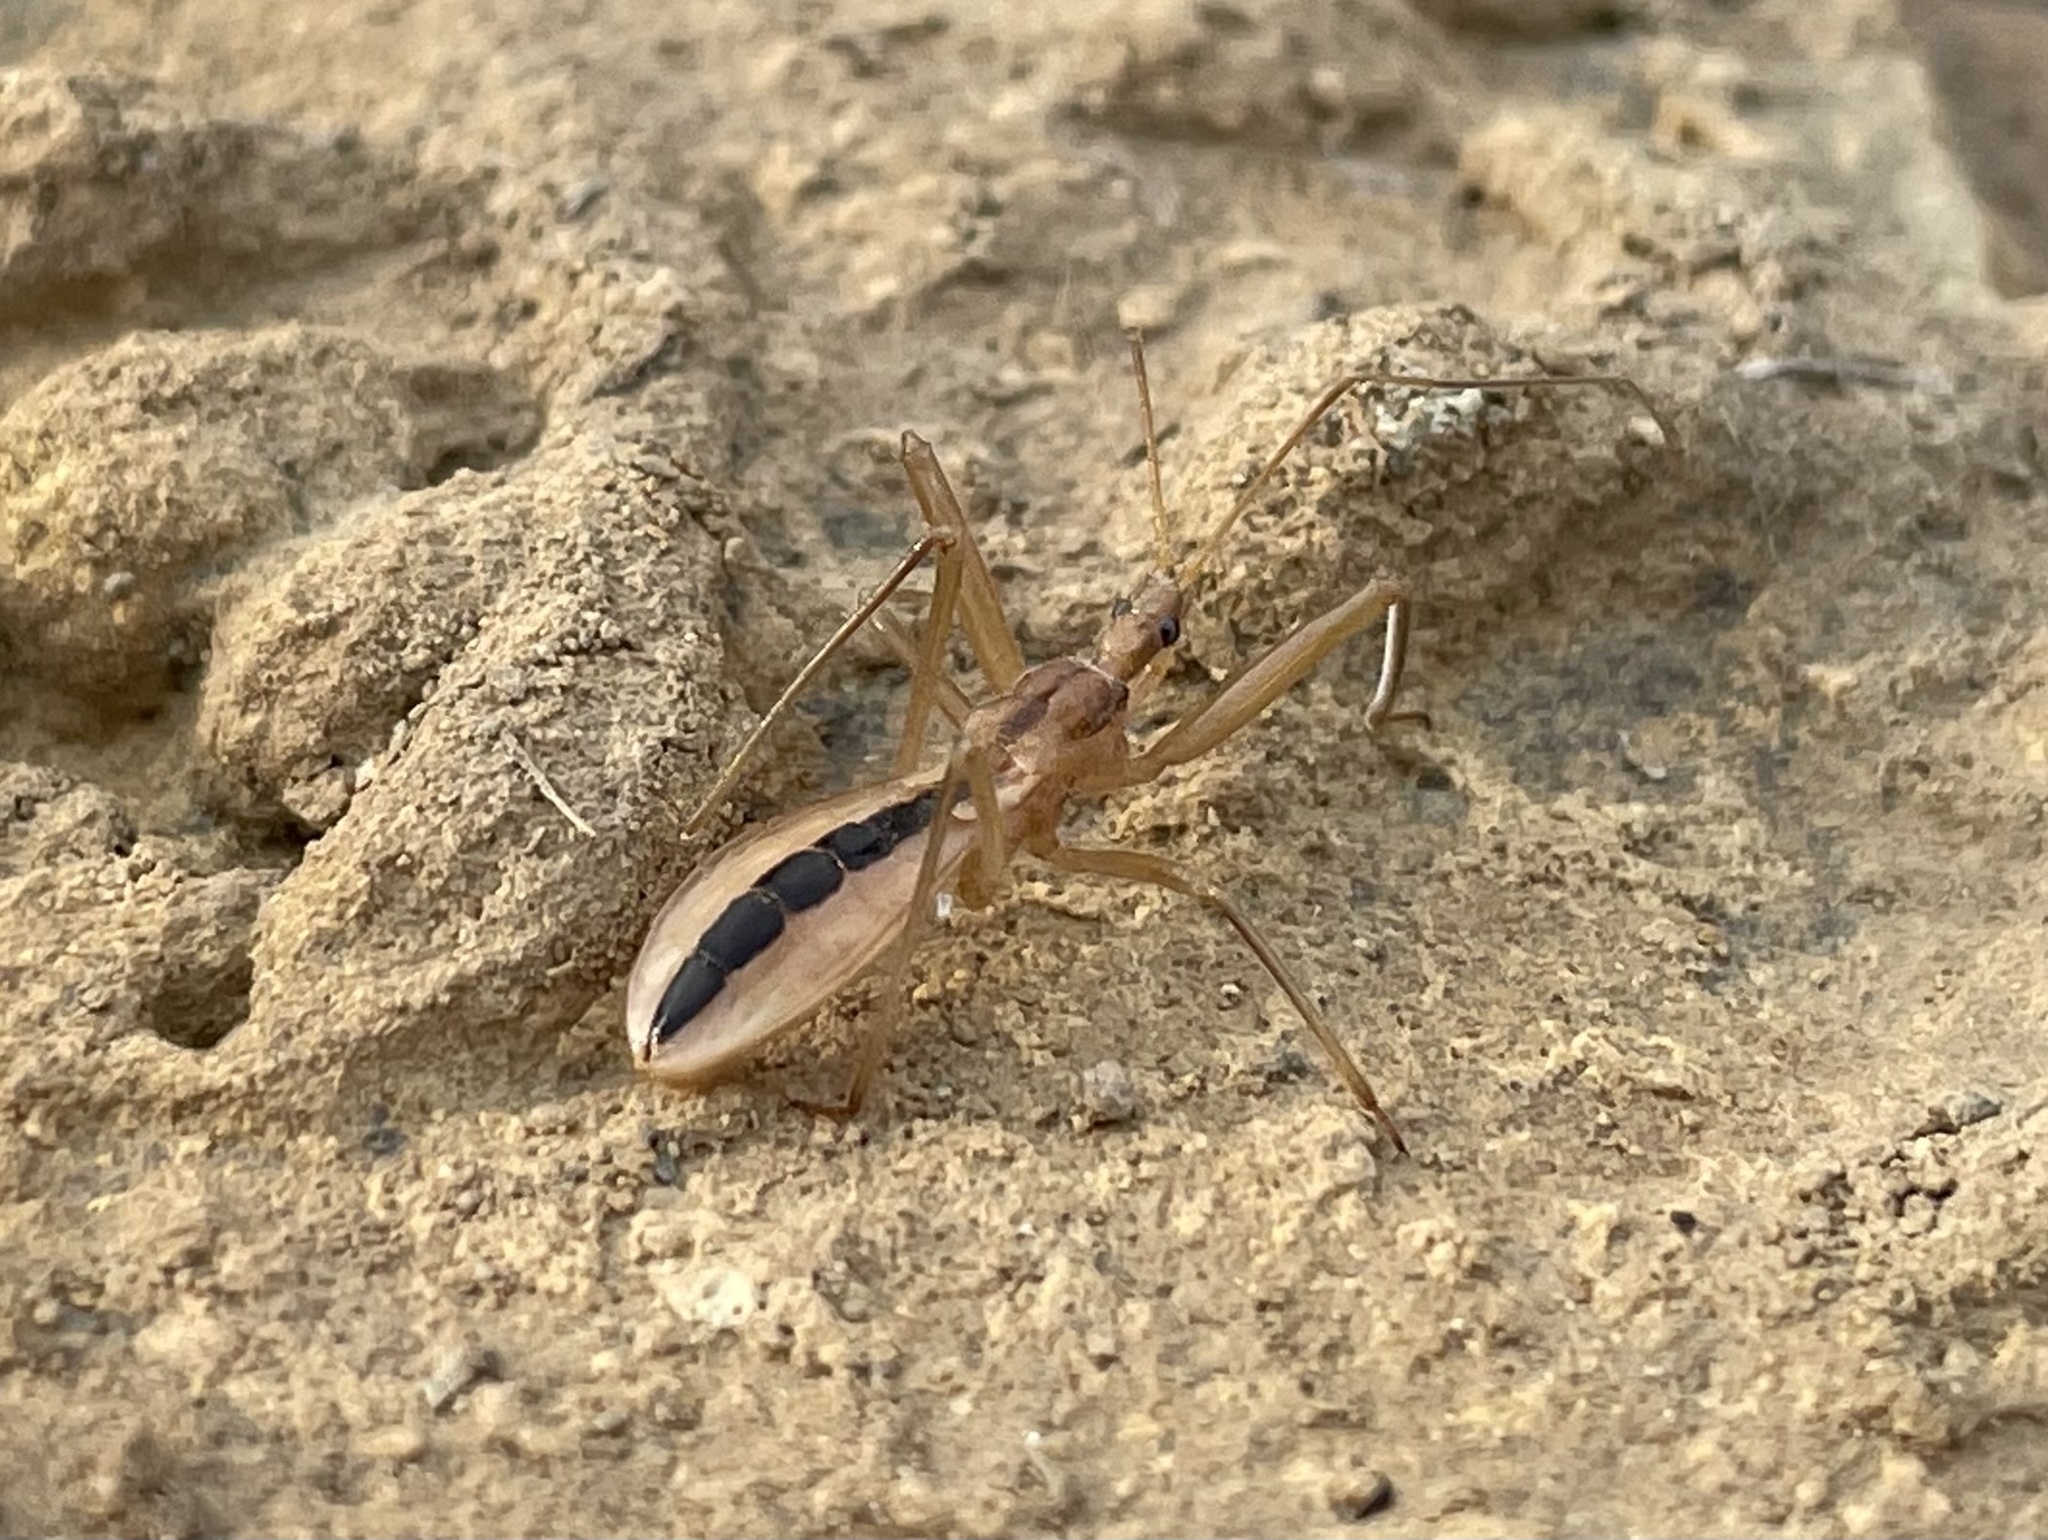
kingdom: Animalia
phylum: Arthropoda
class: Insecta
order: Hemiptera
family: Reduviidae
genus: Fitchia
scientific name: Fitchia aptera
